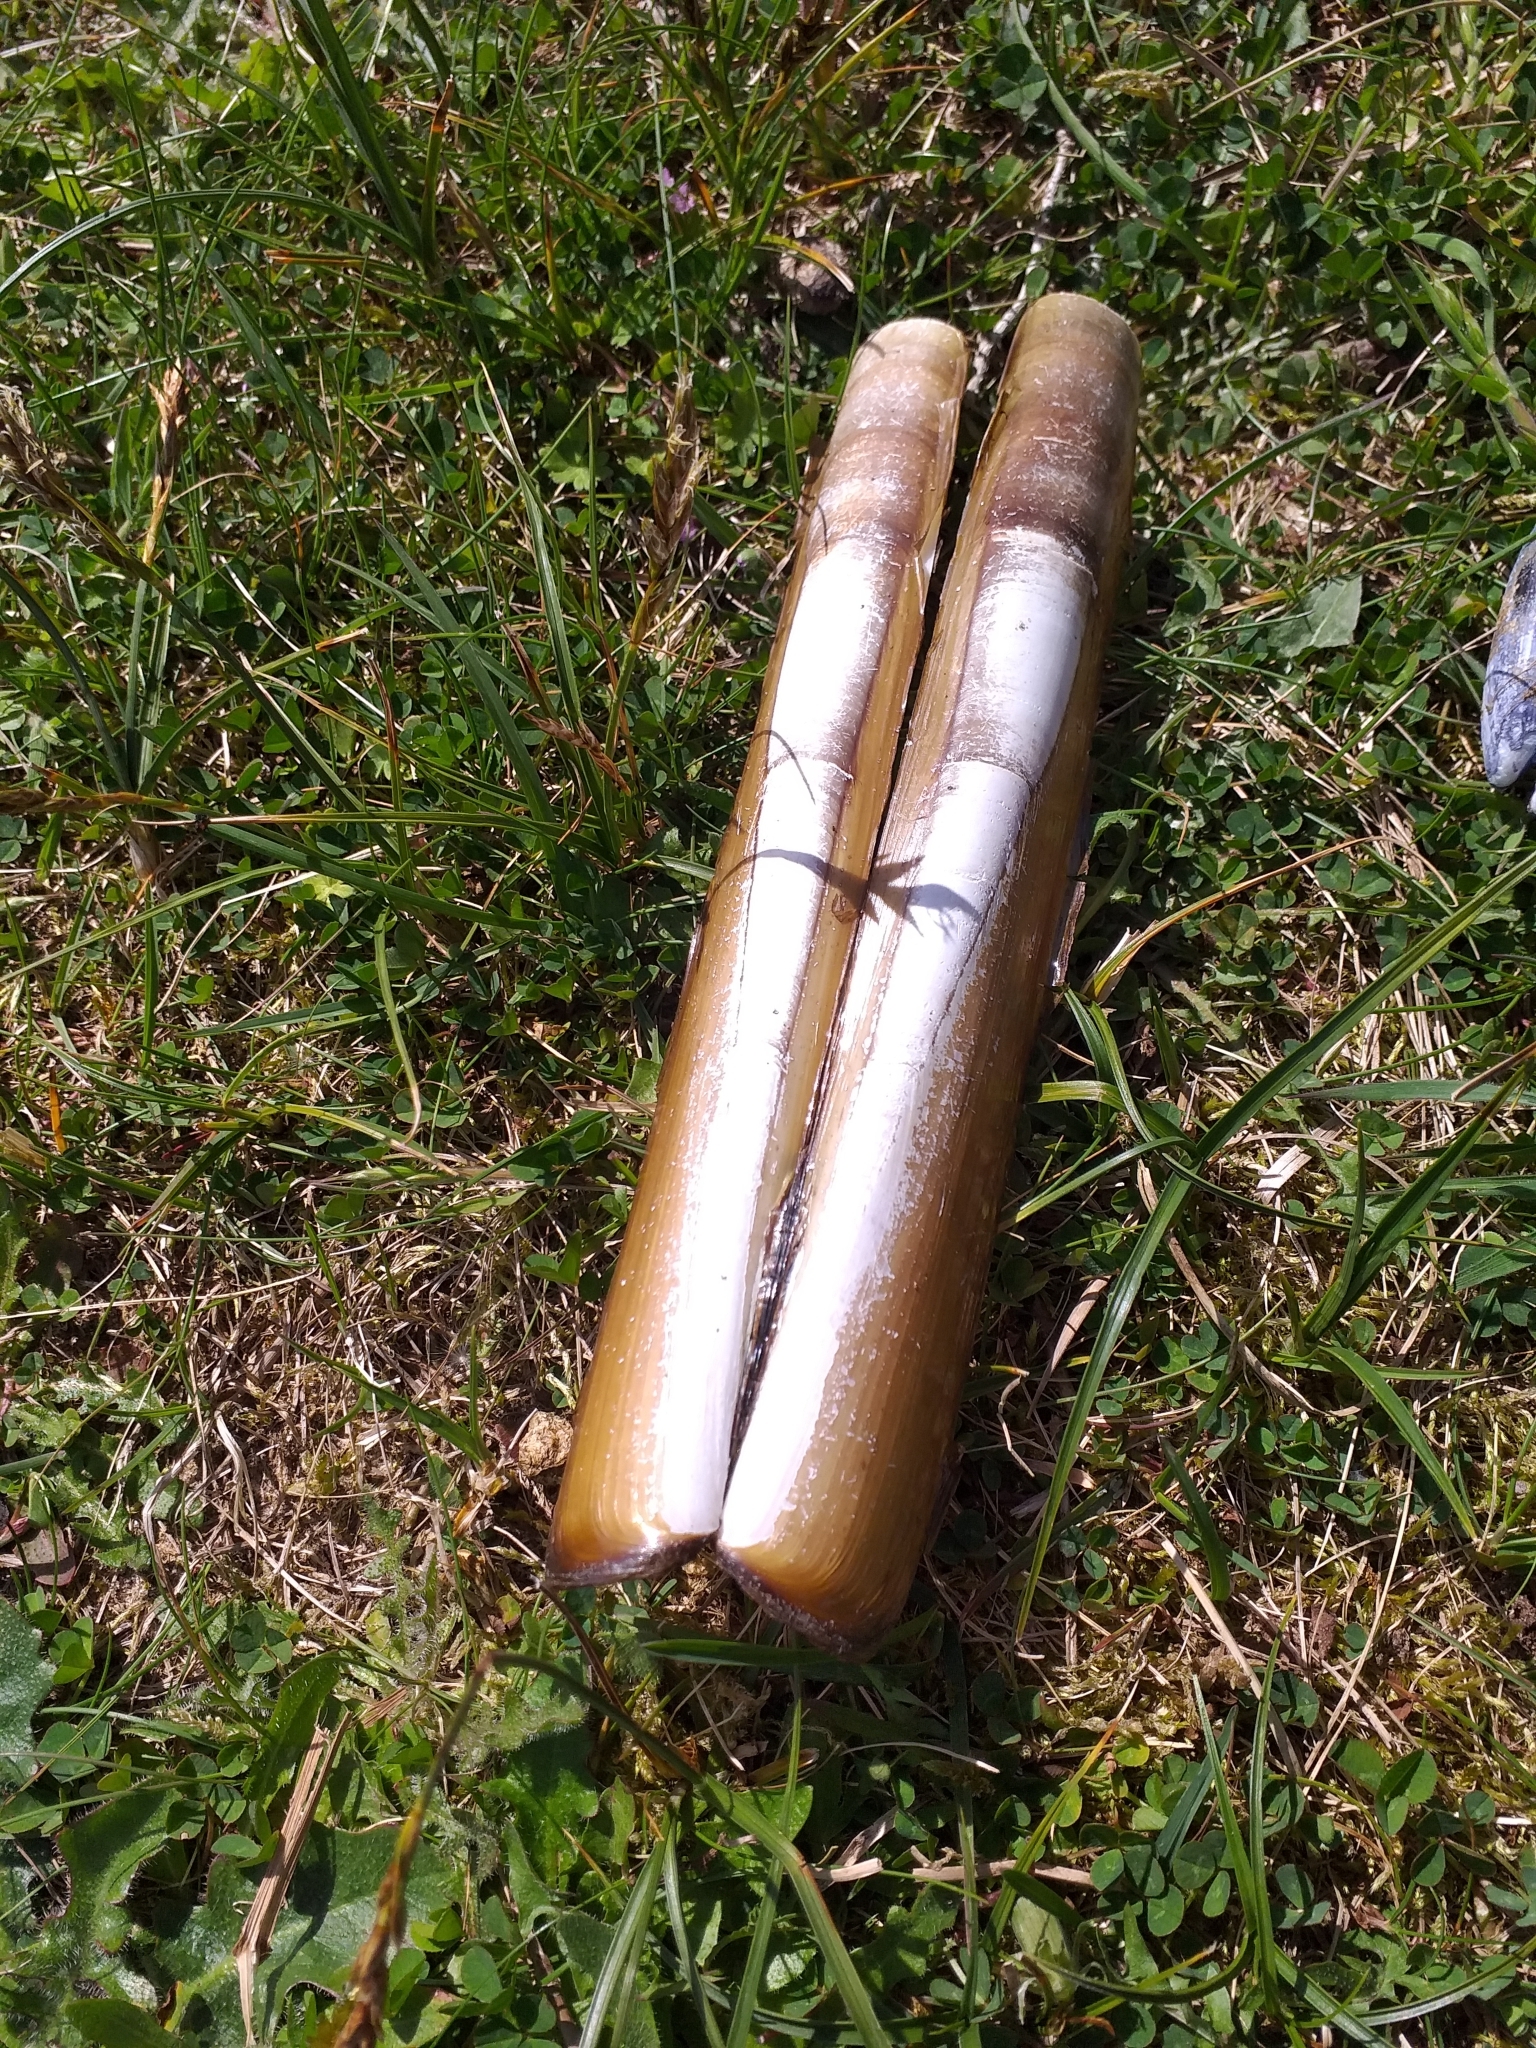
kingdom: Animalia
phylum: Mollusca
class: Bivalvia
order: Adapedonta
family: Pharidae
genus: Ensis
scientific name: Ensis siliqua
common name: Pod razor shell
